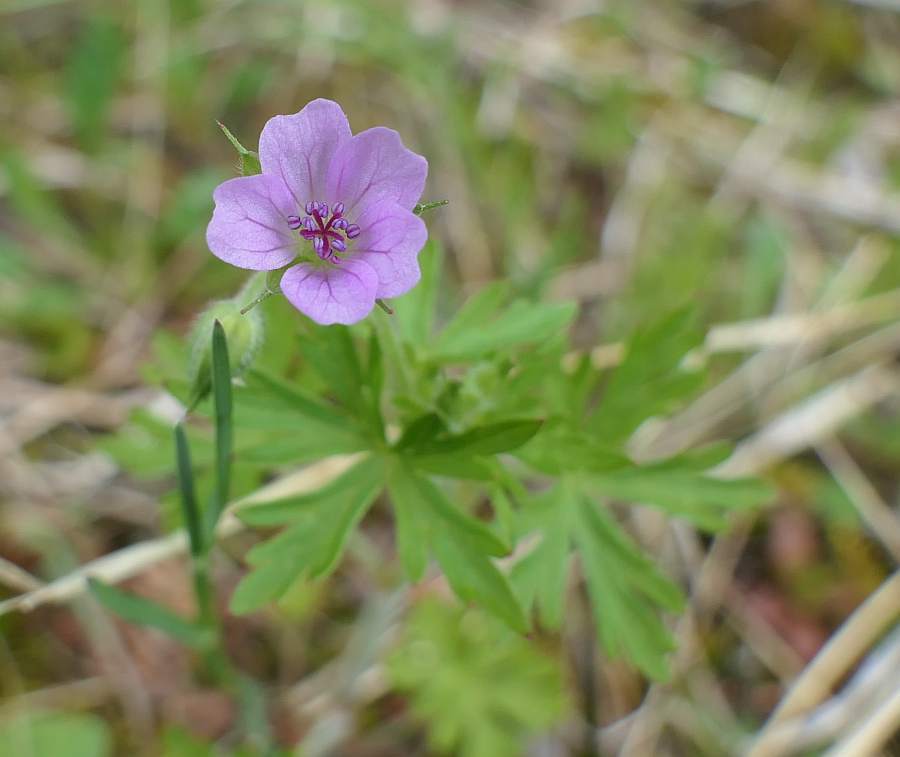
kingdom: Plantae
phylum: Tracheophyta
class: Magnoliopsida
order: Geraniales
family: Geraniaceae
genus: Geranium
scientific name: Geranium bicknellii
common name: Bicknell's cranesbill
